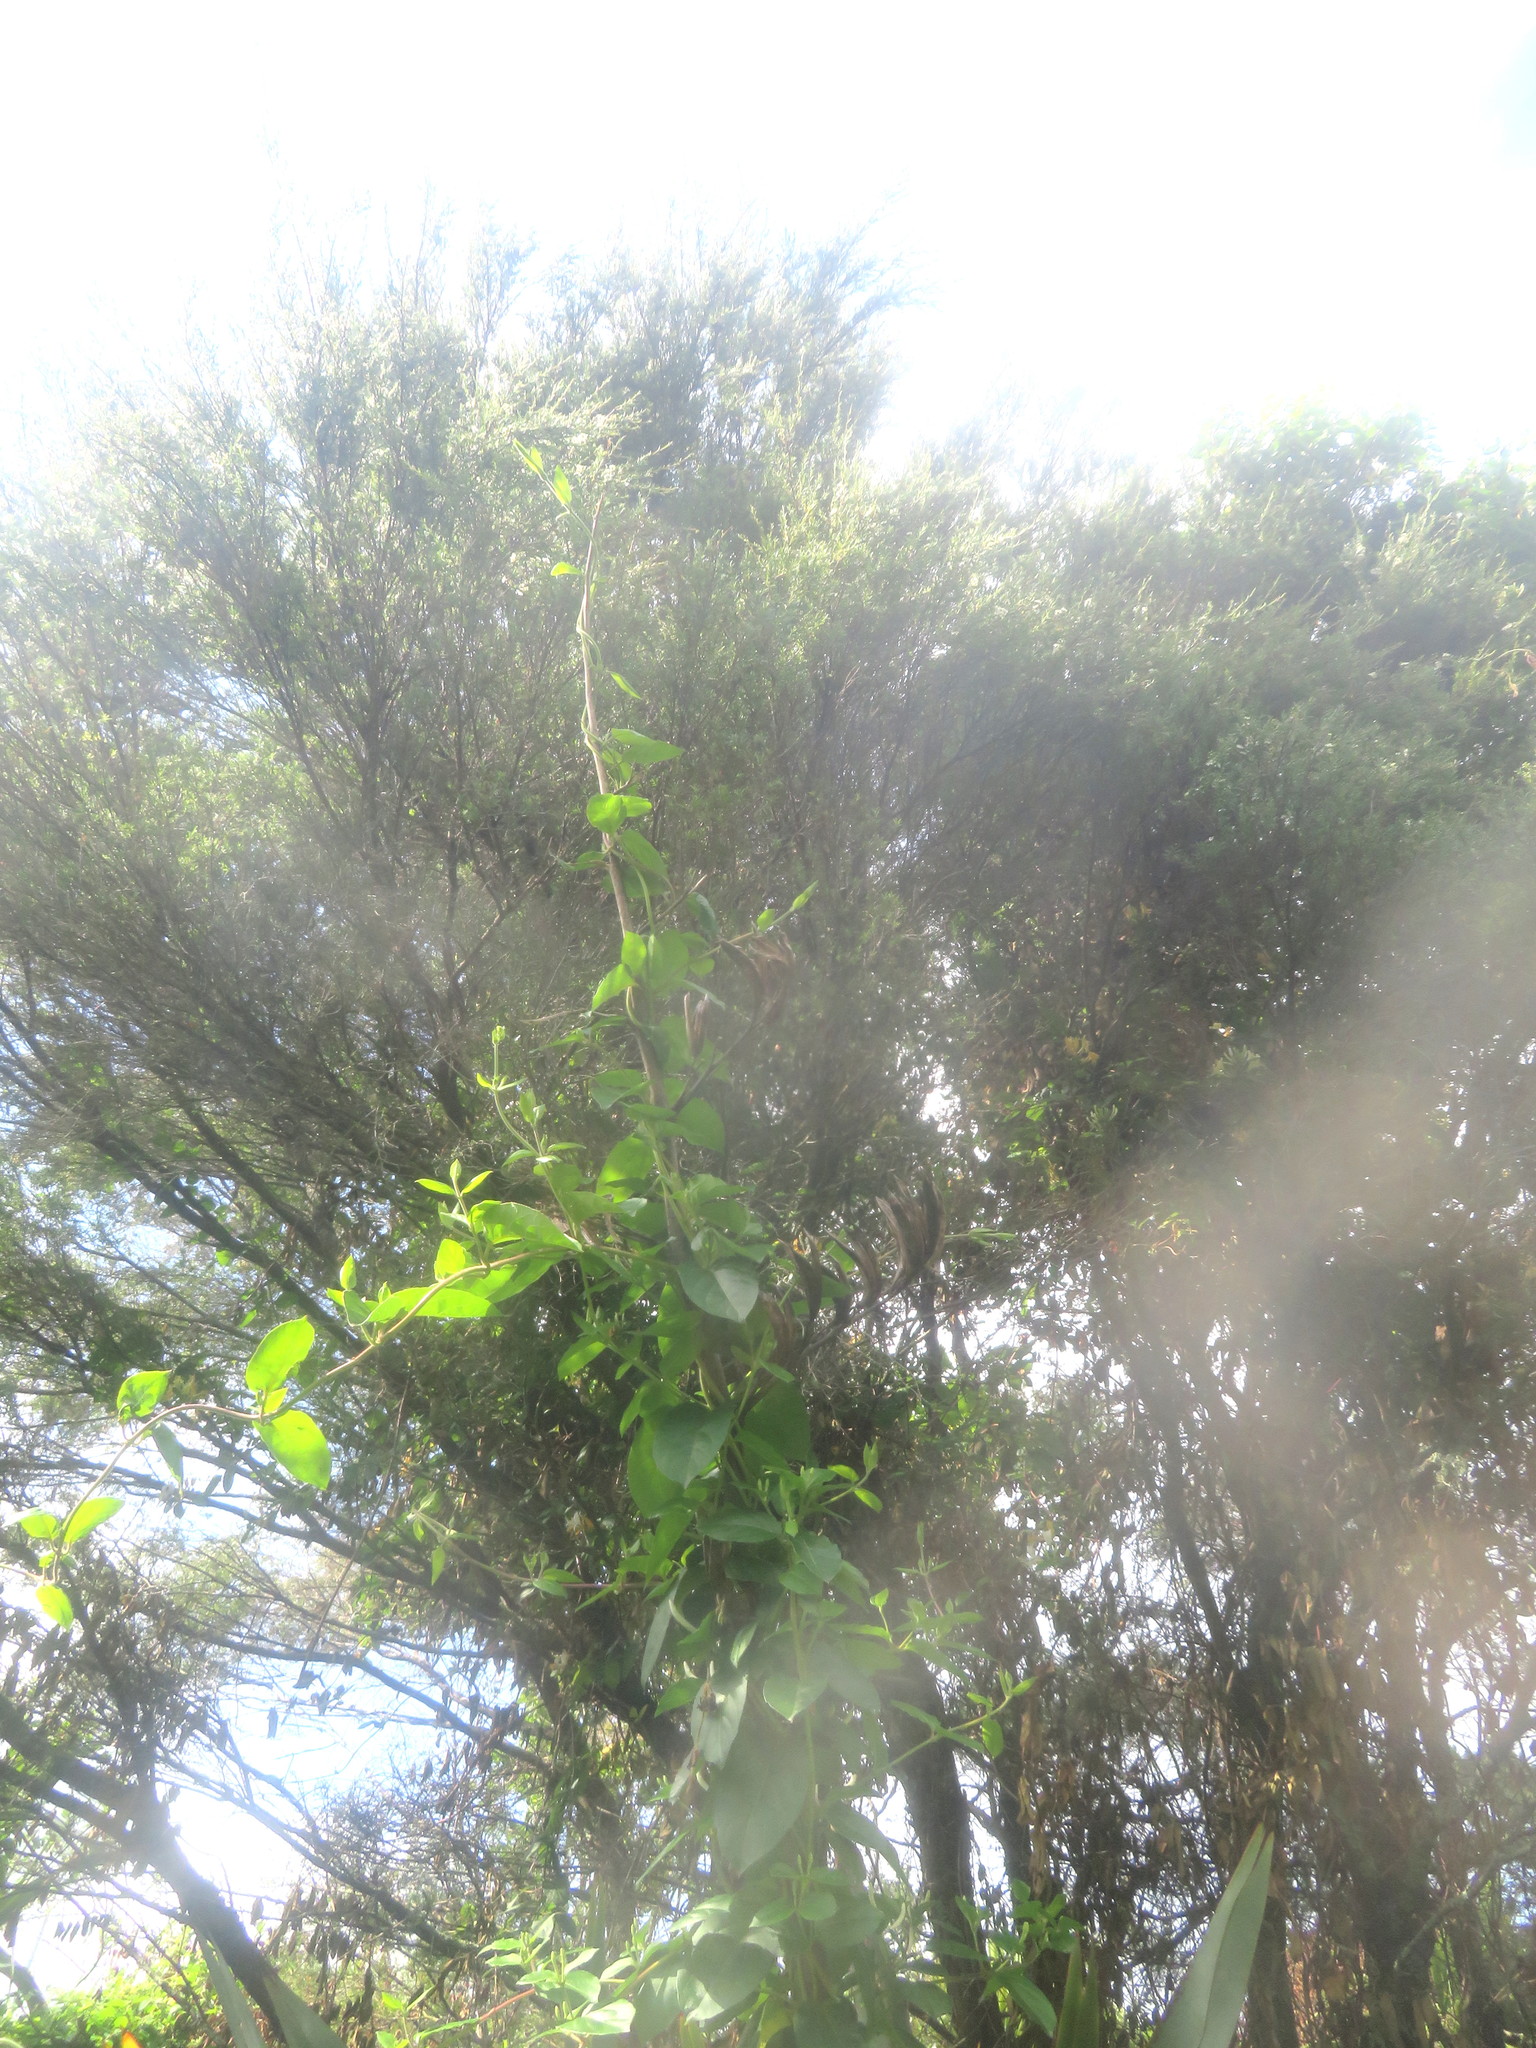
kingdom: Plantae
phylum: Tracheophyta
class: Magnoliopsida
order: Dipsacales
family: Caprifoliaceae
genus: Lonicera
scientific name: Lonicera japonica
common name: Japanese honeysuckle
